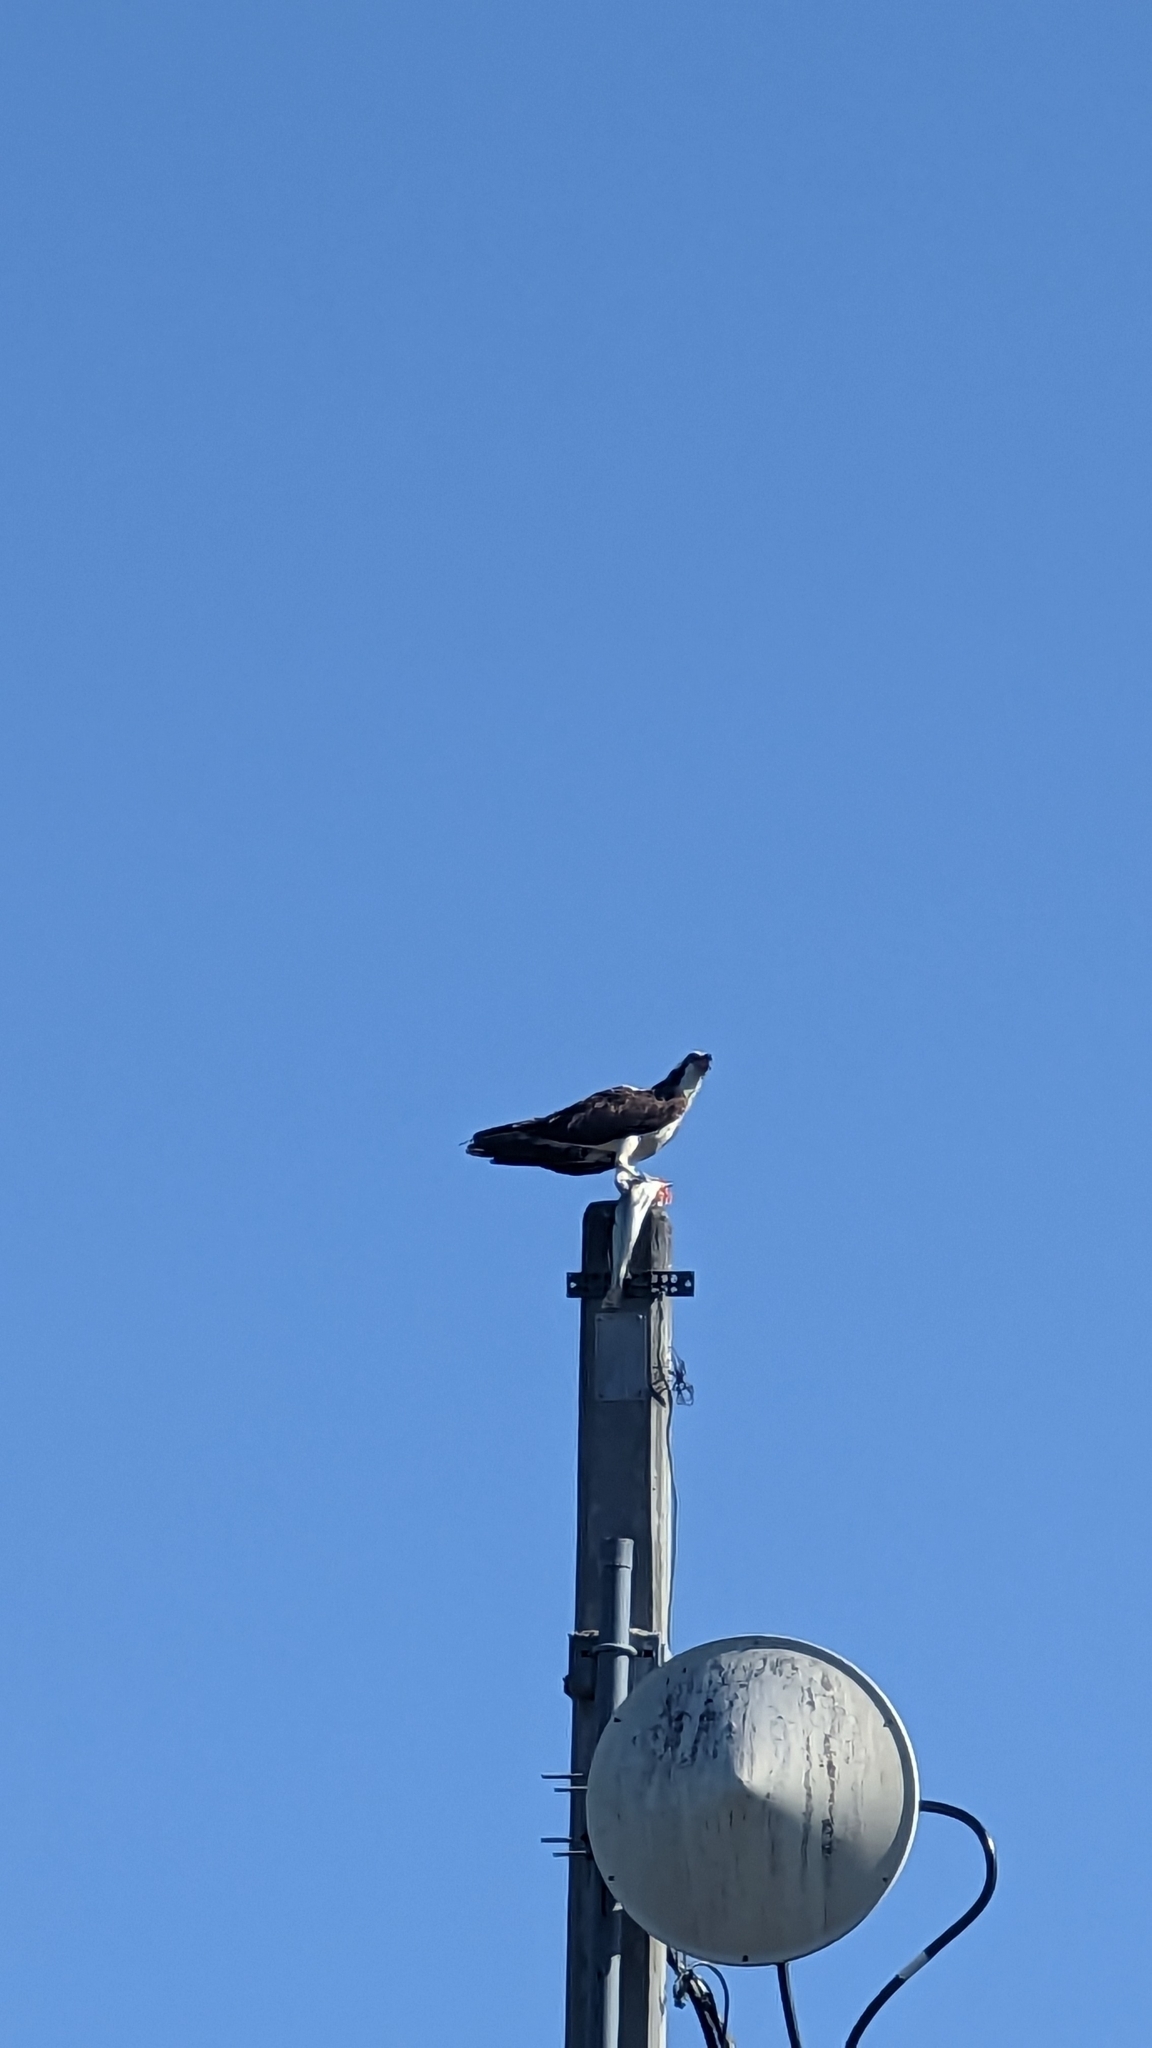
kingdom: Animalia
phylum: Chordata
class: Aves
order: Accipitriformes
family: Pandionidae
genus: Pandion
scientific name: Pandion haliaetus
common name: Osprey
